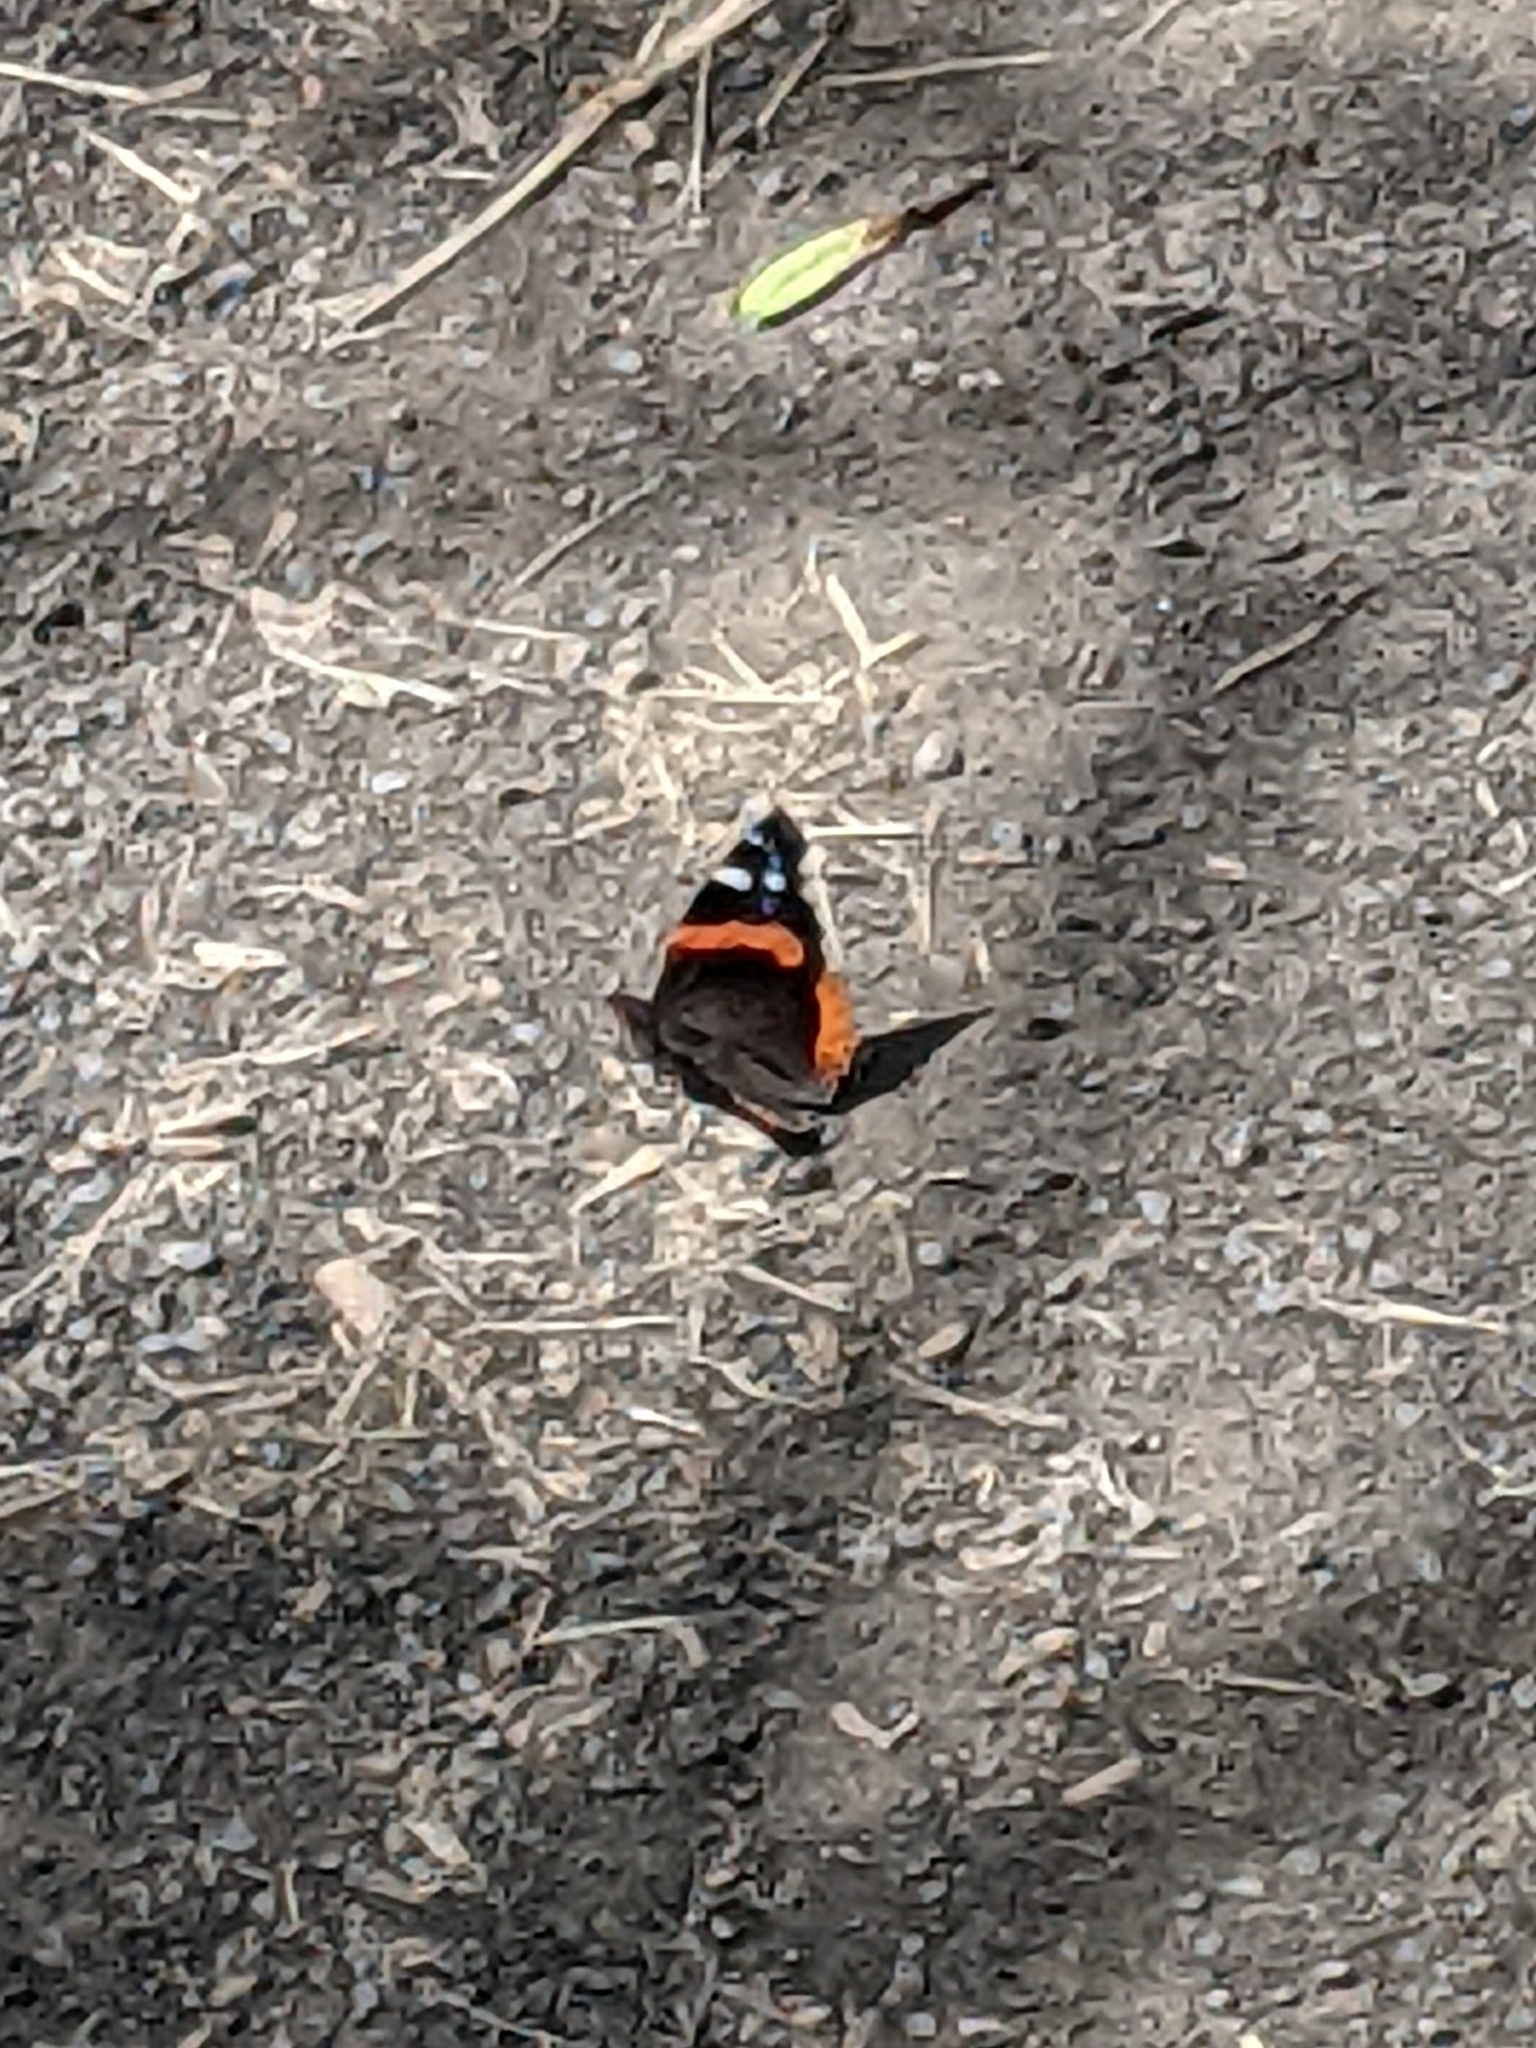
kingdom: Animalia
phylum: Arthropoda
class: Insecta
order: Lepidoptera
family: Nymphalidae
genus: Vanessa
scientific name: Vanessa atalanta
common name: Red admiral
